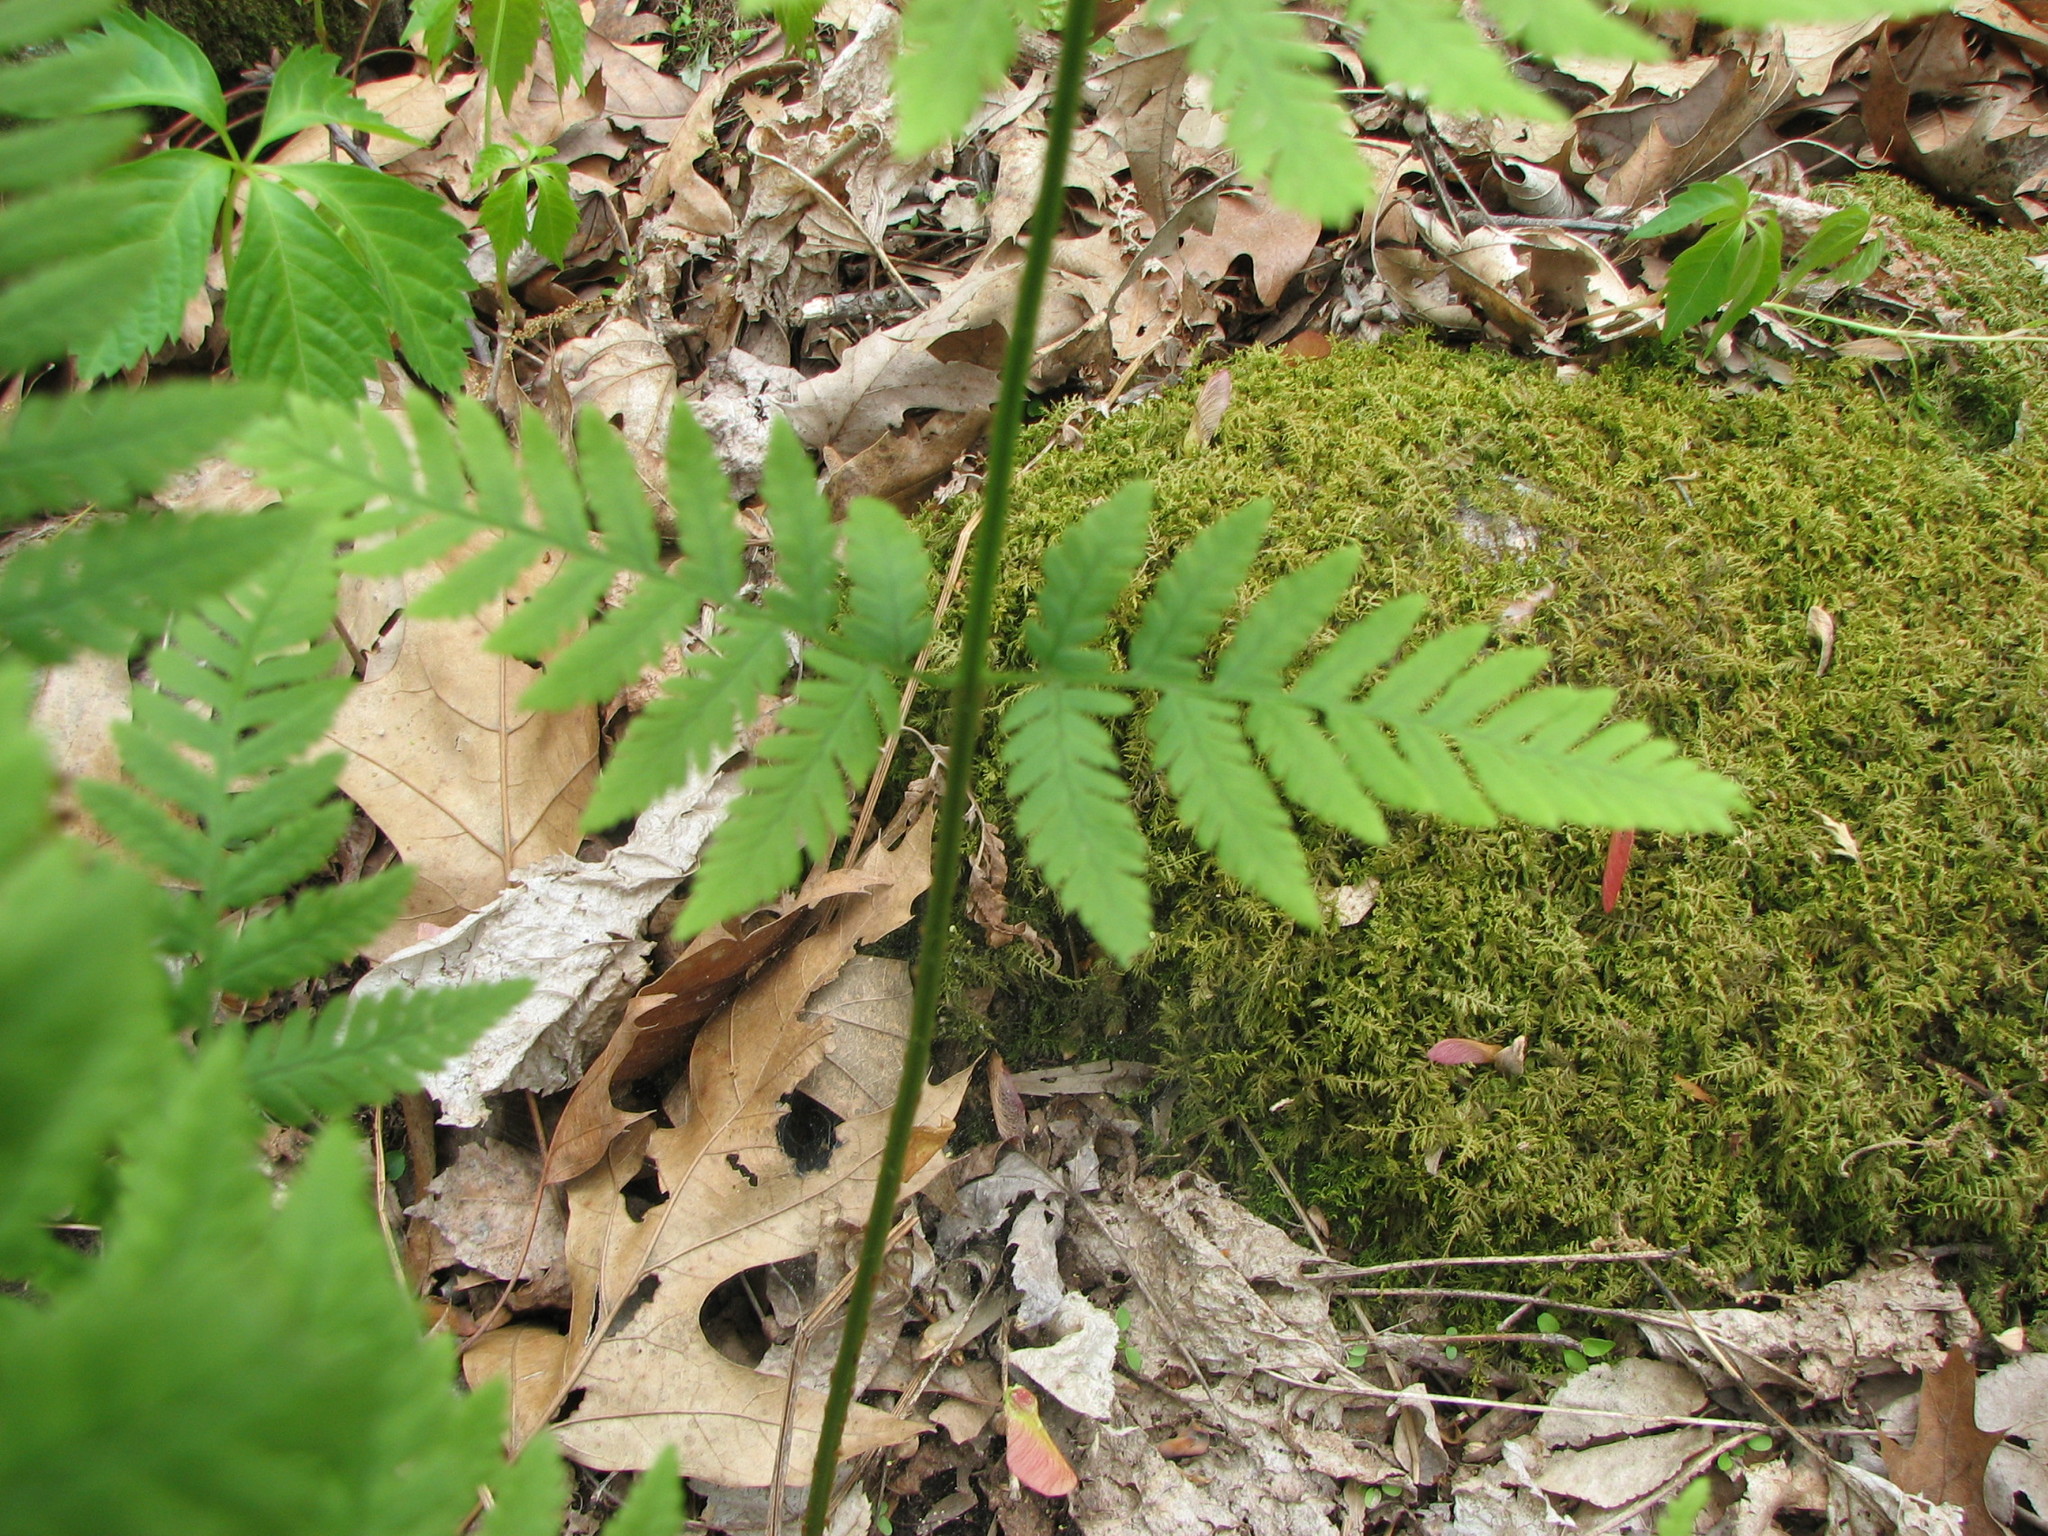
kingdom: Plantae
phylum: Tracheophyta
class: Polypodiopsida
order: Polypodiales
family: Dryopteridaceae
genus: Dryopteris
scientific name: Dryopteris carthusiana
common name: Narrow buckler-fern
